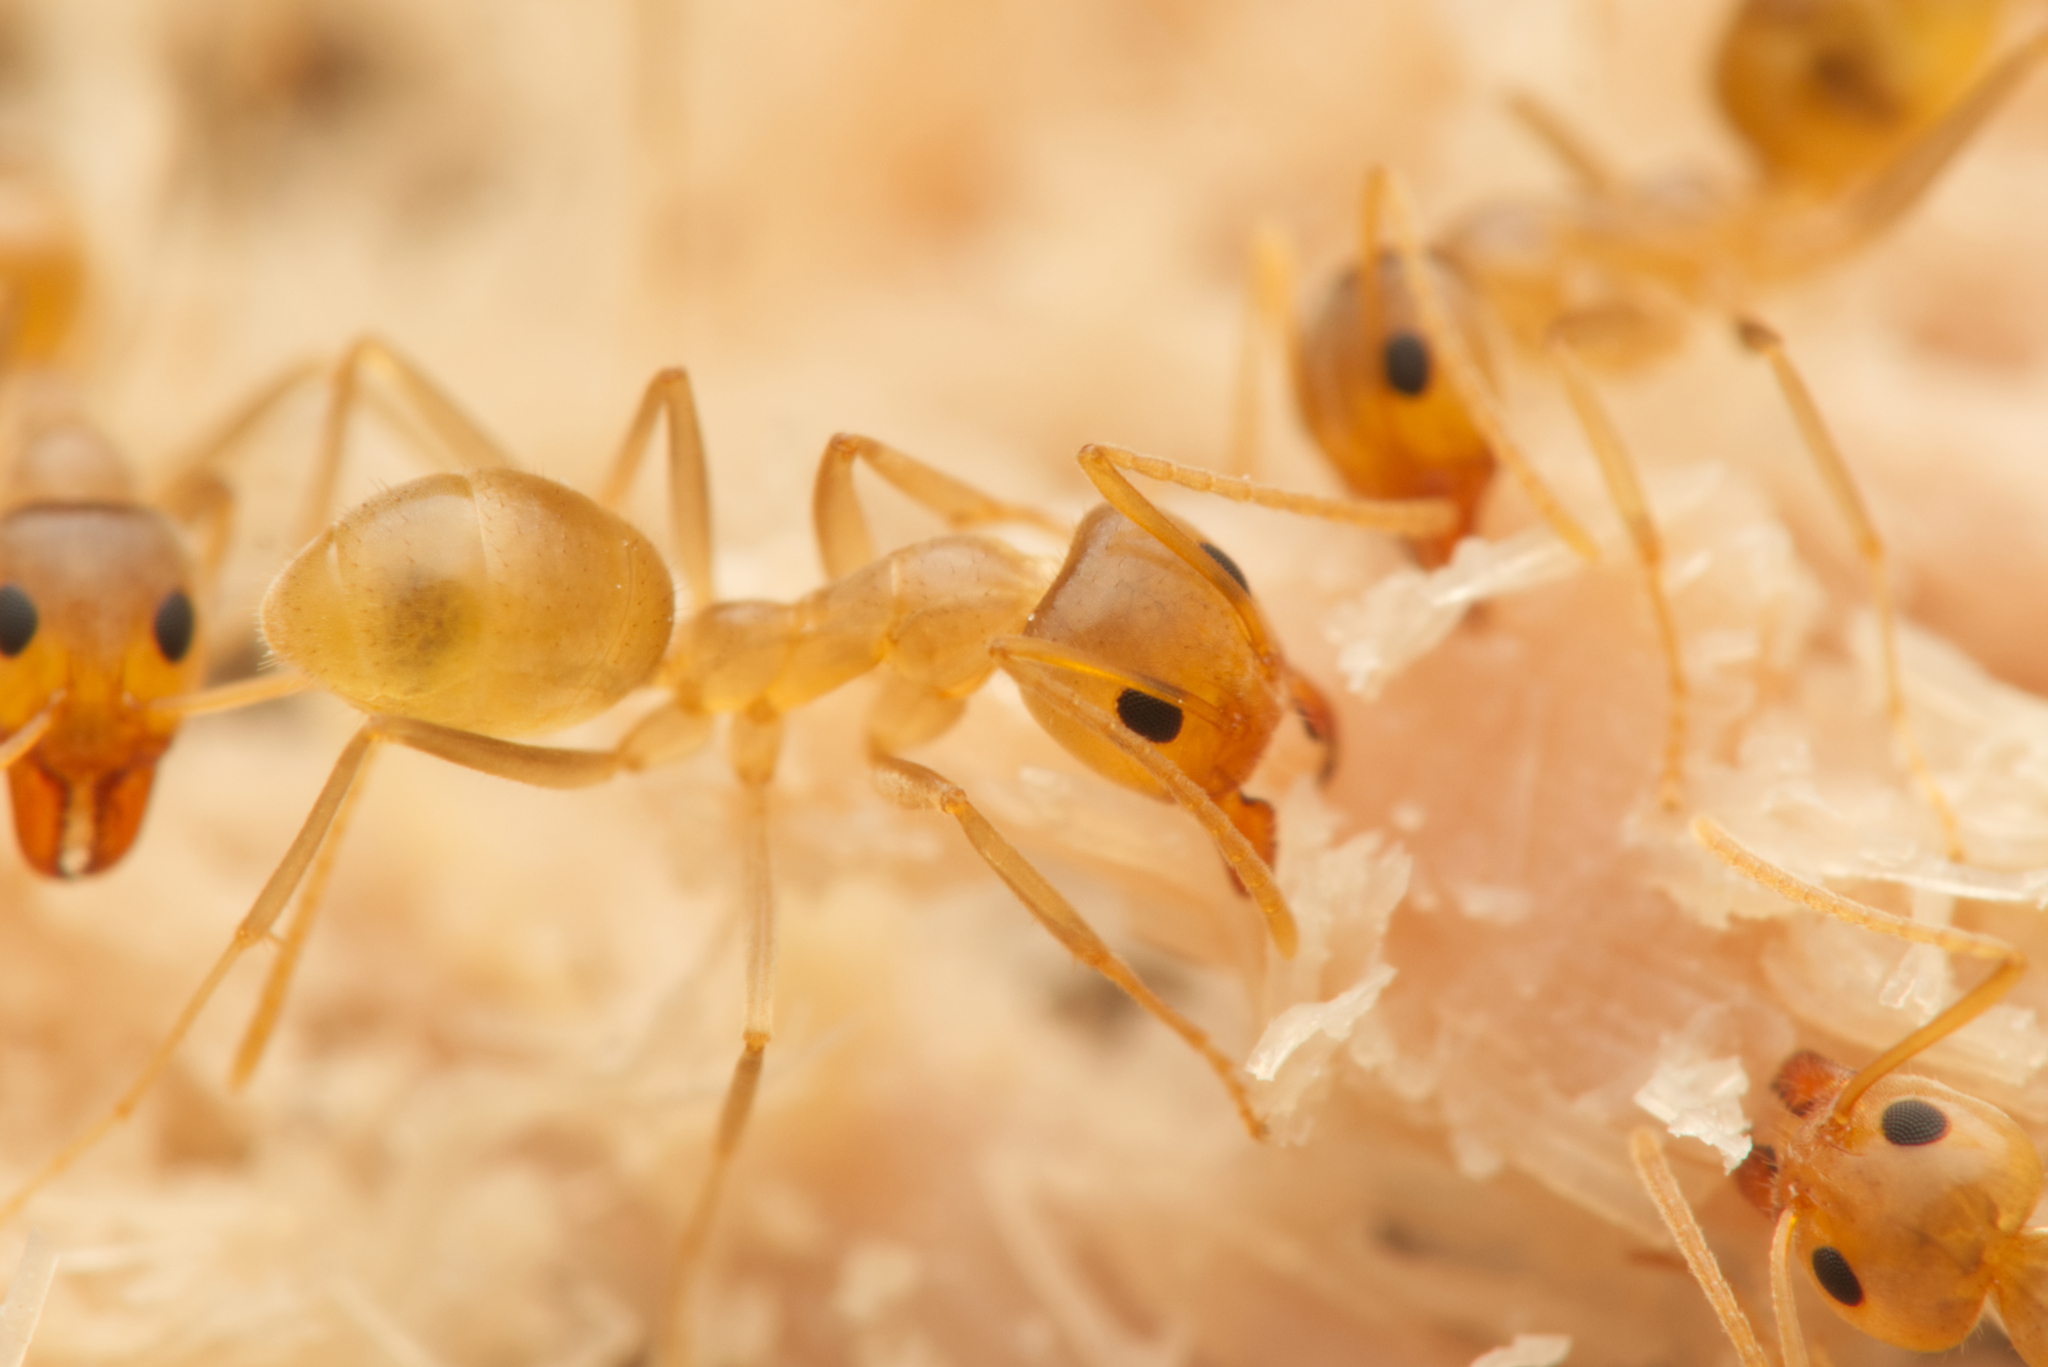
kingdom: Animalia
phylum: Arthropoda
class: Insecta
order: Hymenoptera
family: Formicidae
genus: Iridomyrmex
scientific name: Iridomyrmex pallidus
